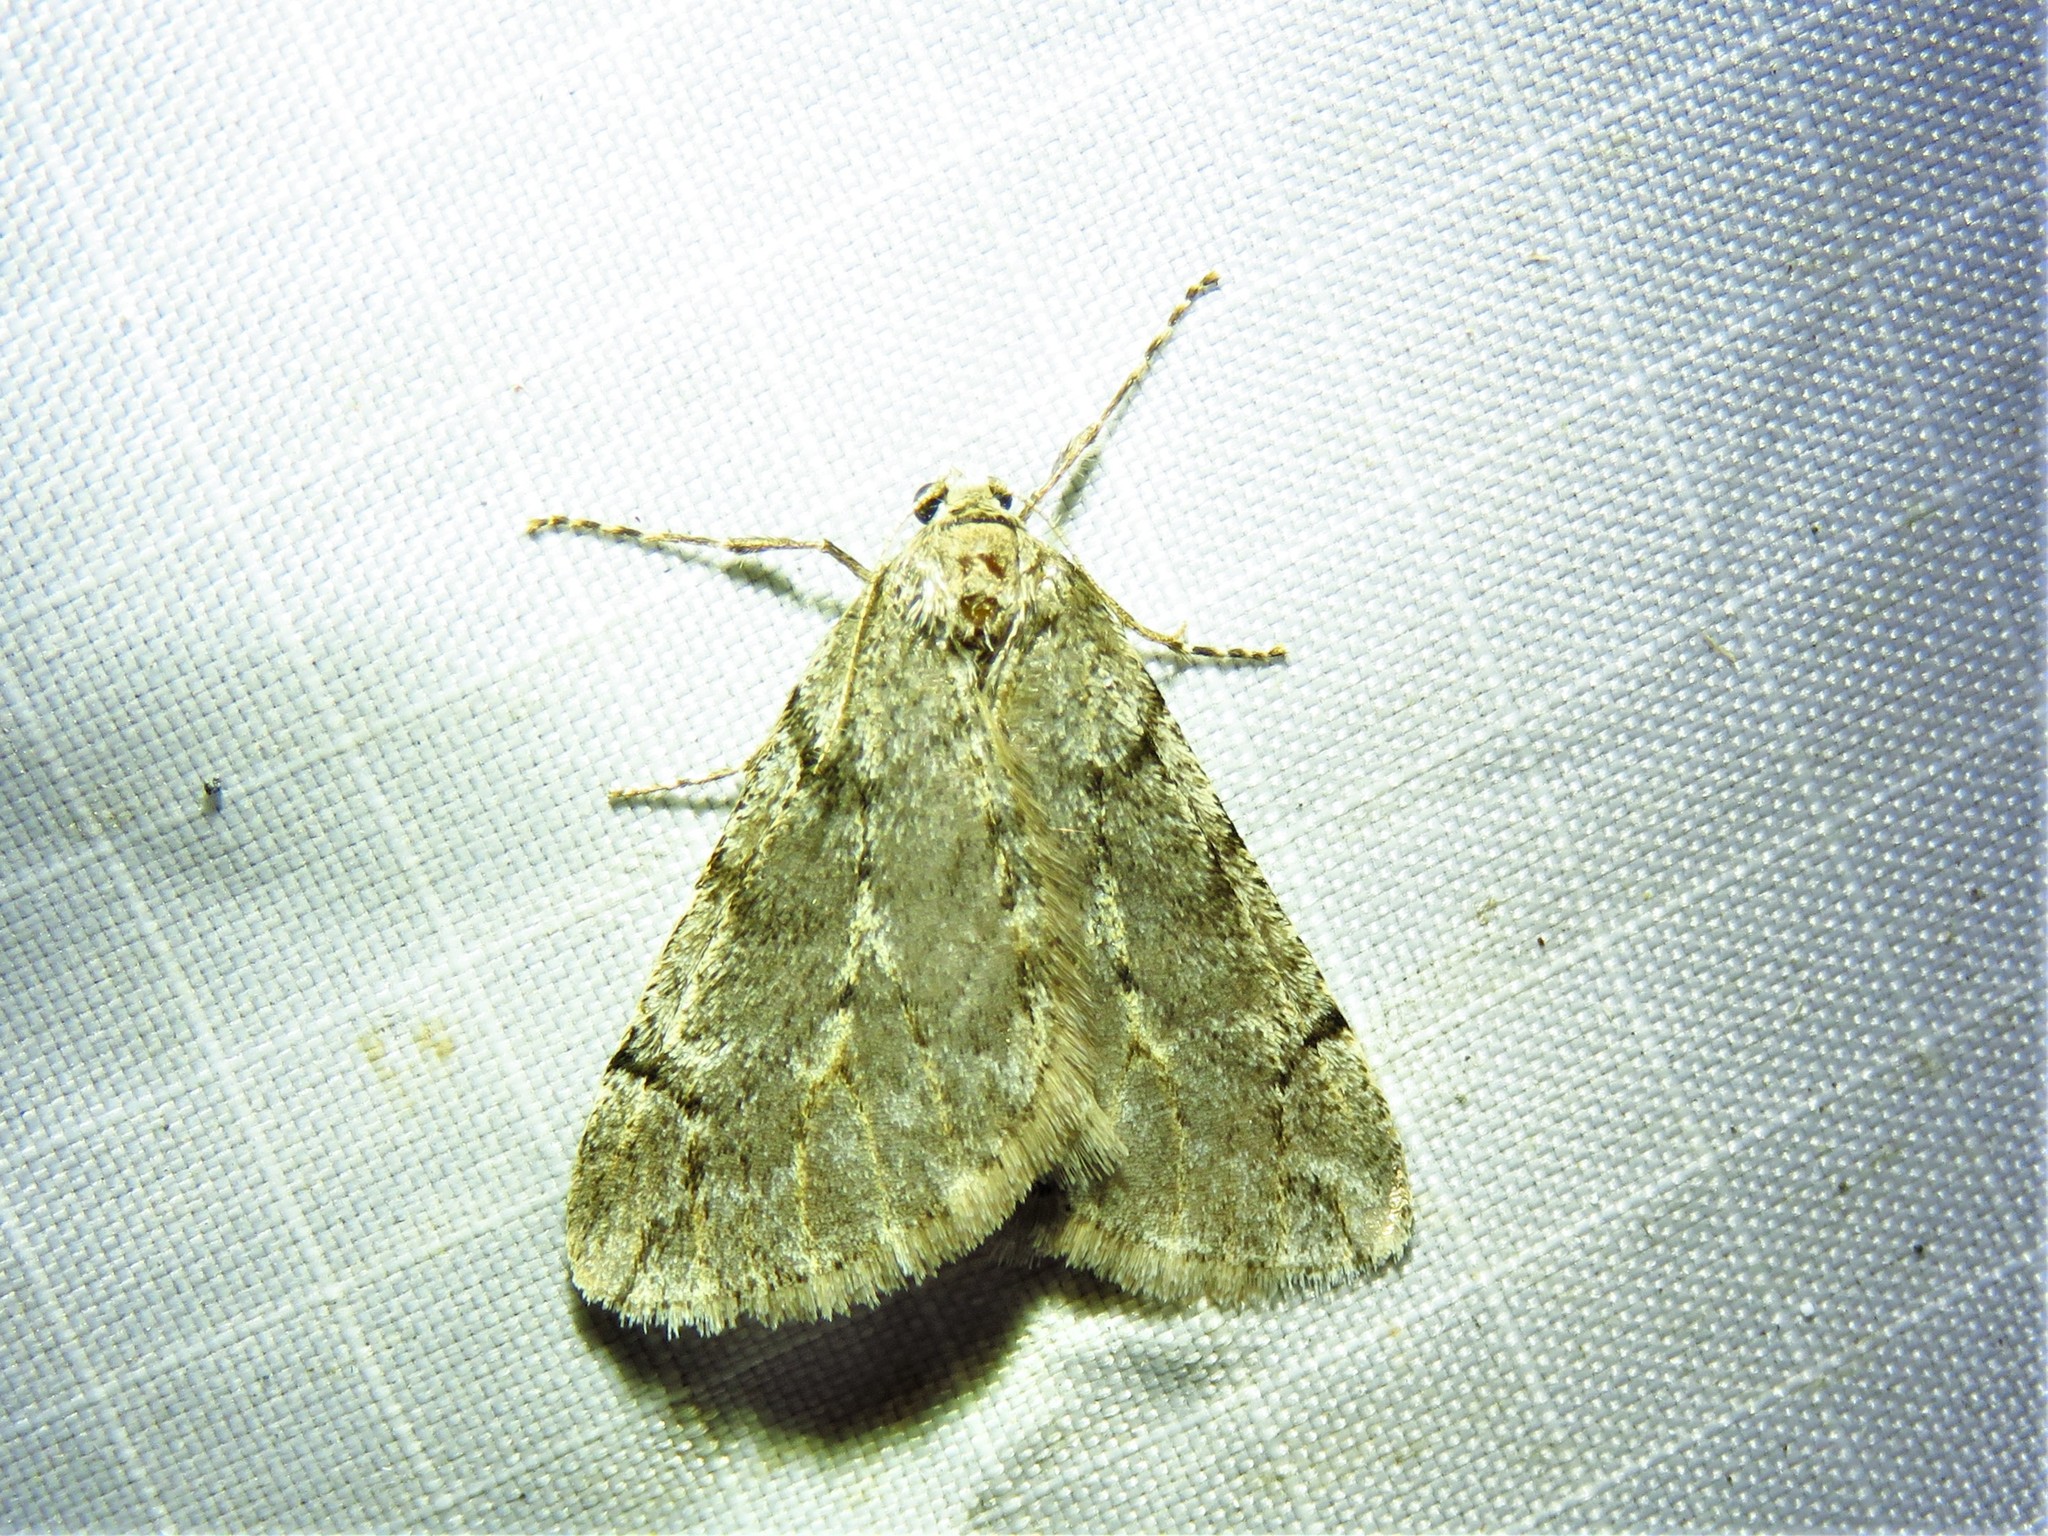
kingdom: Animalia
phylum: Arthropoda
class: Insecta
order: Lepidoptera
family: Geometridae
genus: Paleacrita
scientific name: Paleacrita vernata
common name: Spring cankerworm
